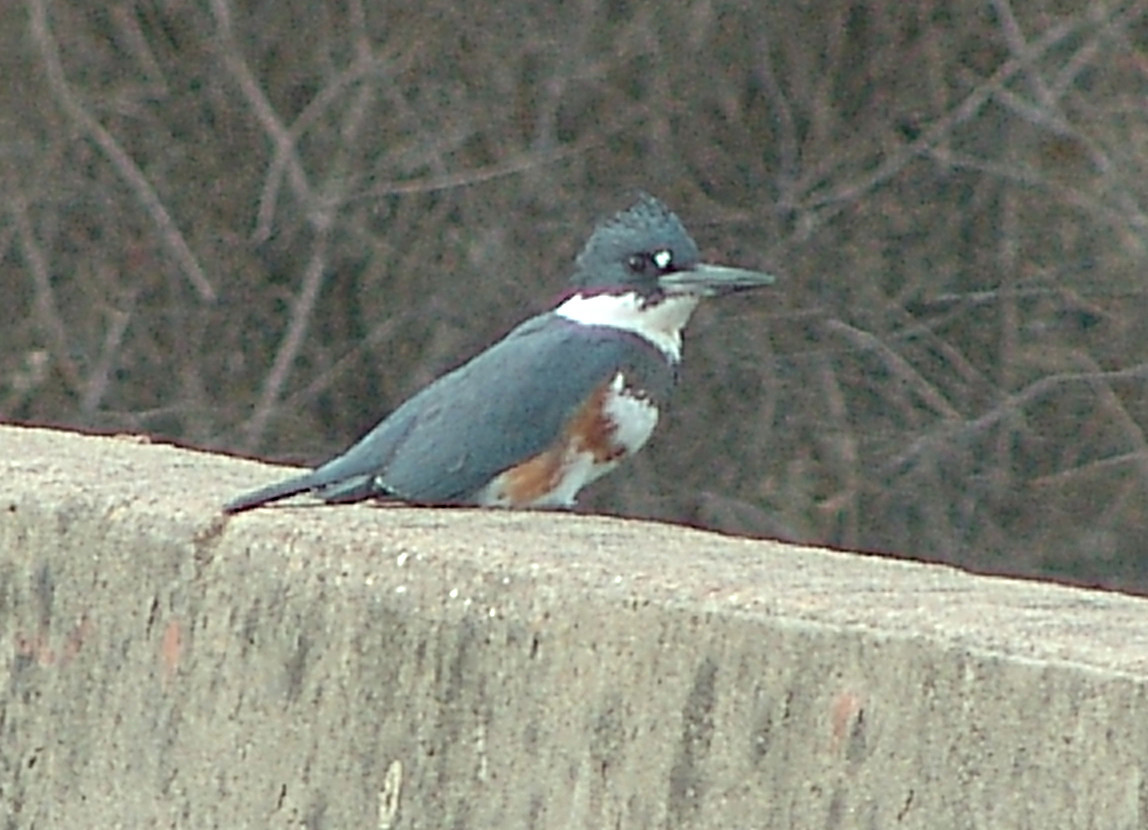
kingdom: Animalia
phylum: Chordata
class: Aves
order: Coraciiformes
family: Alcedinidae
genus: Megaceryle
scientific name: Megaceryle alcyon
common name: Belted kingfisher
